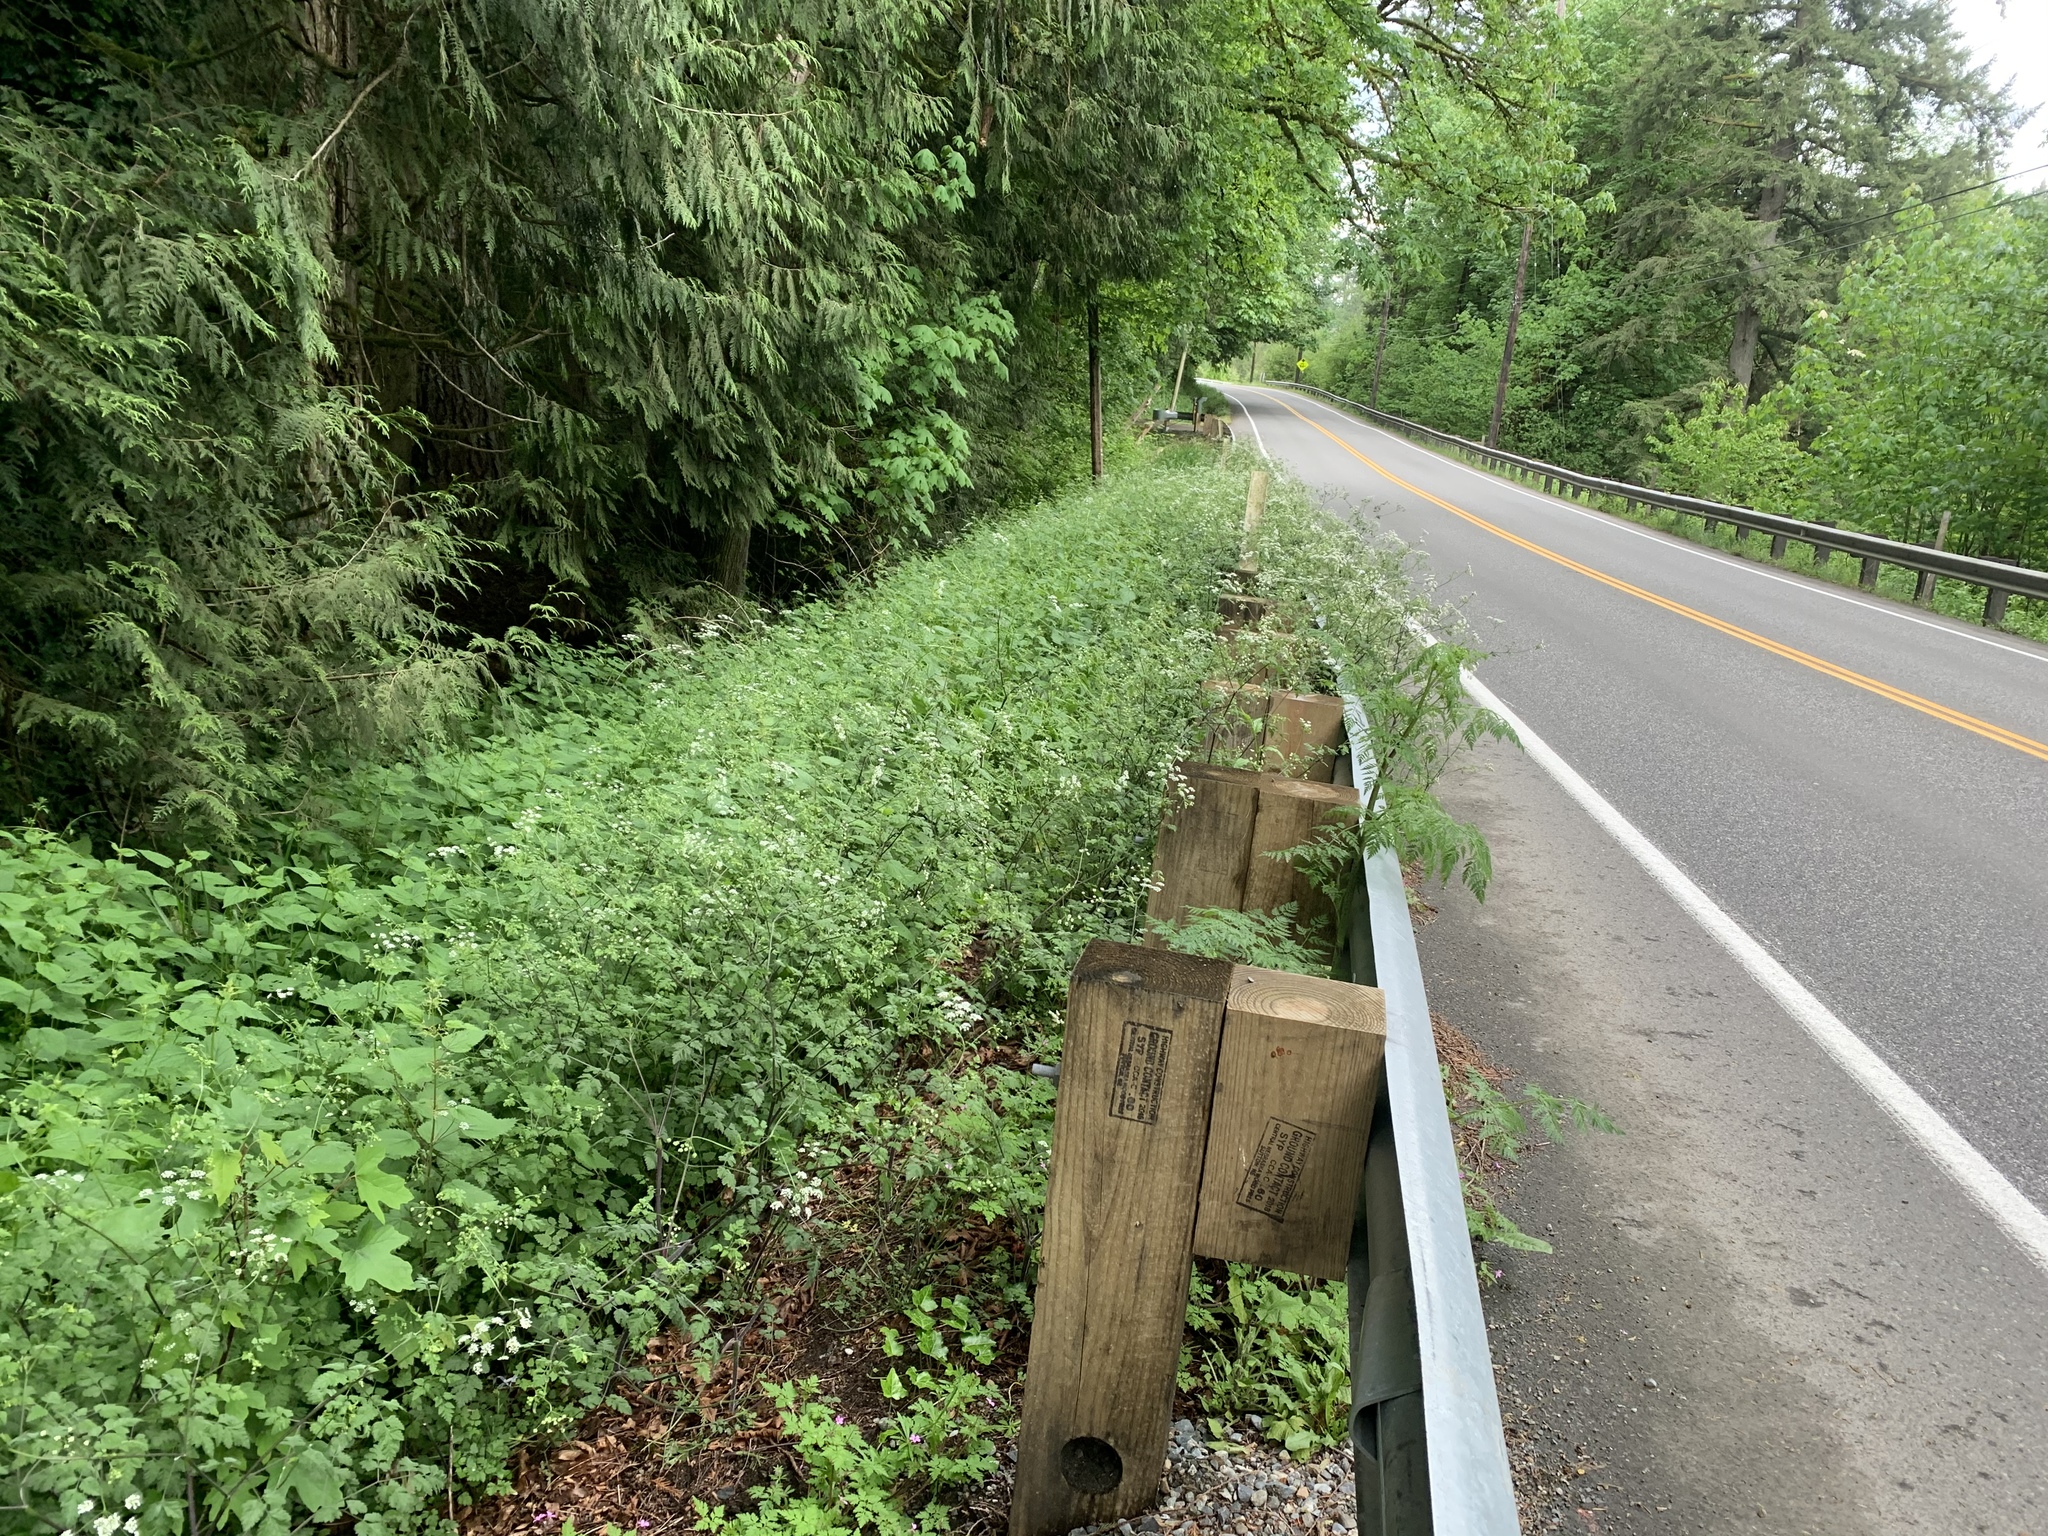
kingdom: Plantae
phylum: Tracheophyta
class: Magnoliopsida
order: Apiales
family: Apiaceae
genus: Chaerophyllum
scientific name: Chaerophyllum temulum
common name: Rough chervil
